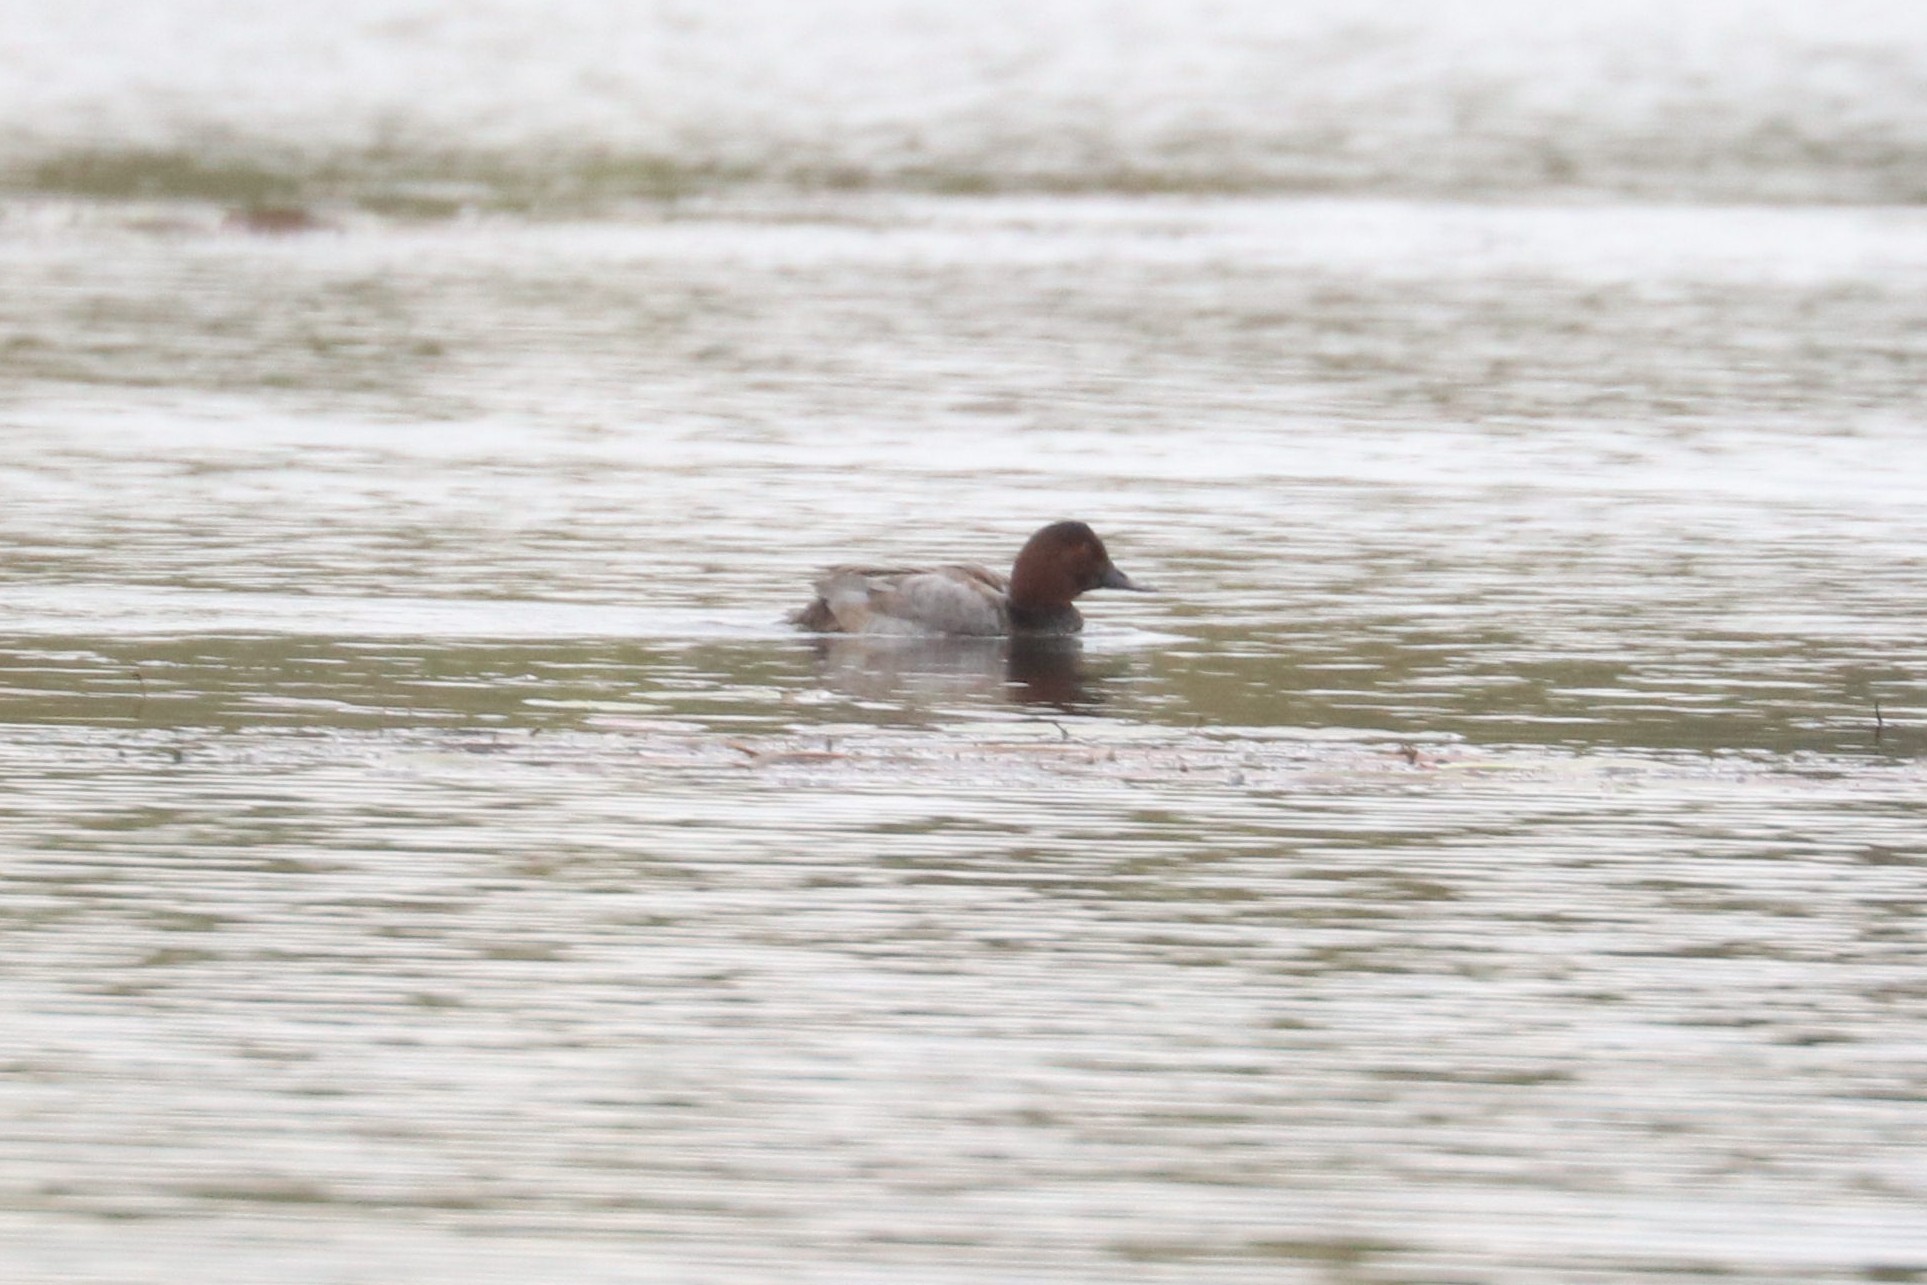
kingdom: Animalia
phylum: Chordata
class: Aves
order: Anseriformes
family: Anatidae
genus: Aythya
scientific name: Aythya ferina
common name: Common pochard
